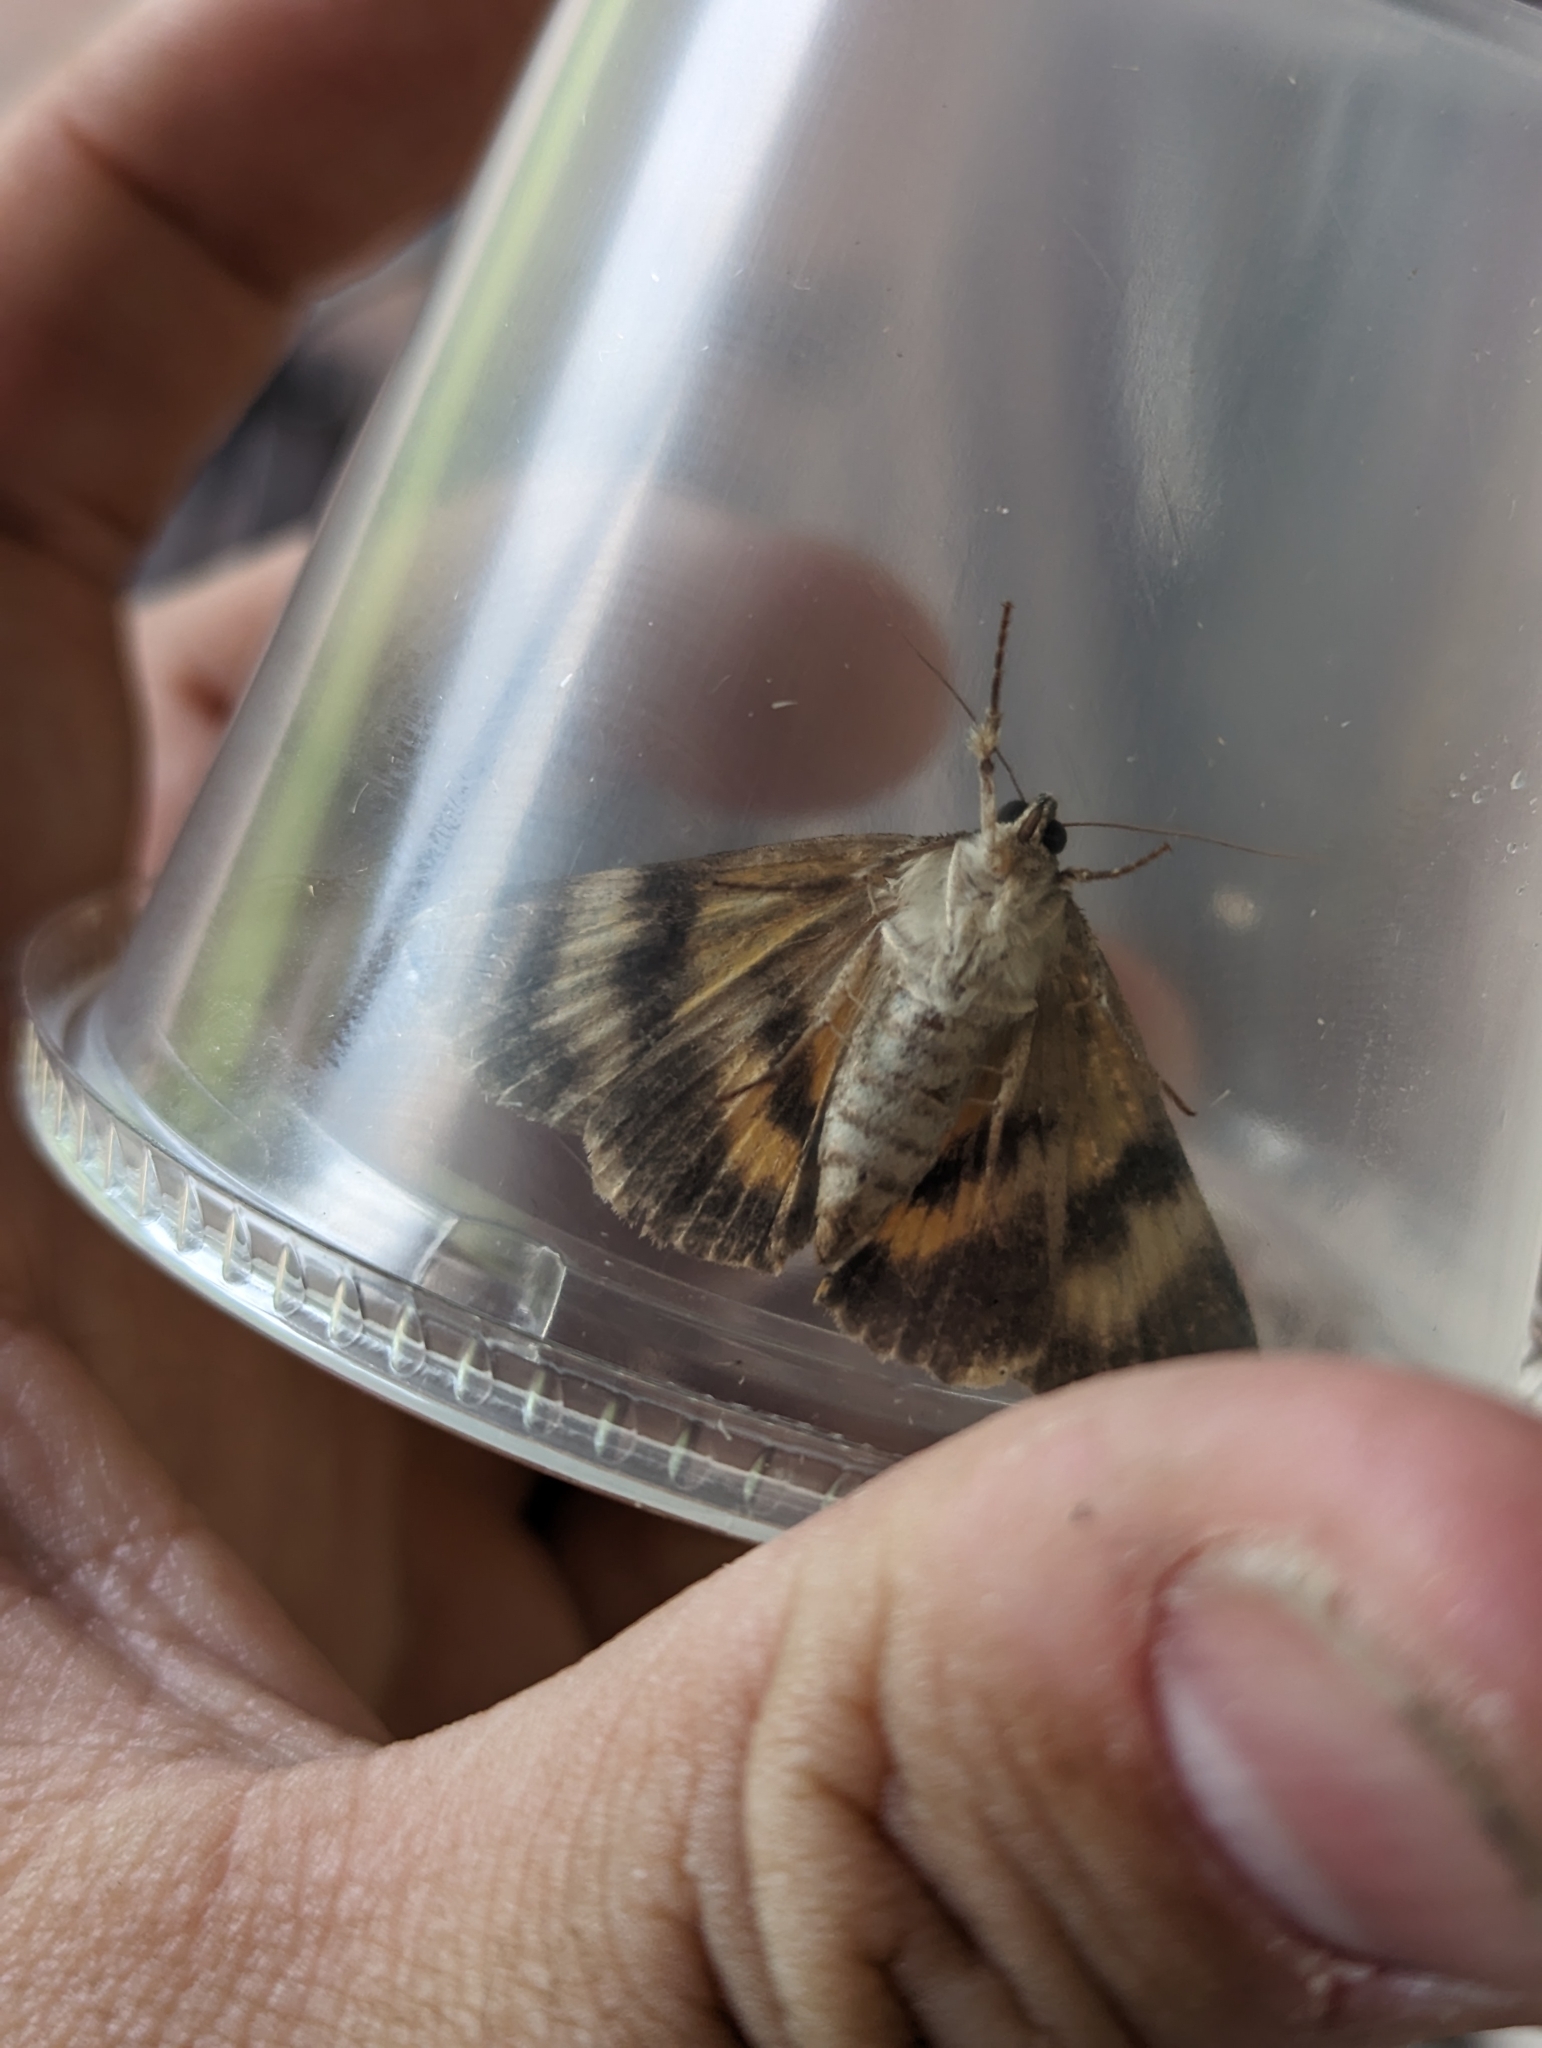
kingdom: Animalia
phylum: Arthropoda
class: Insecta
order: Lepidoptera
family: Erebidae
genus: Catocala
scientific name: Catocala micronympha
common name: Little nymph underwing
